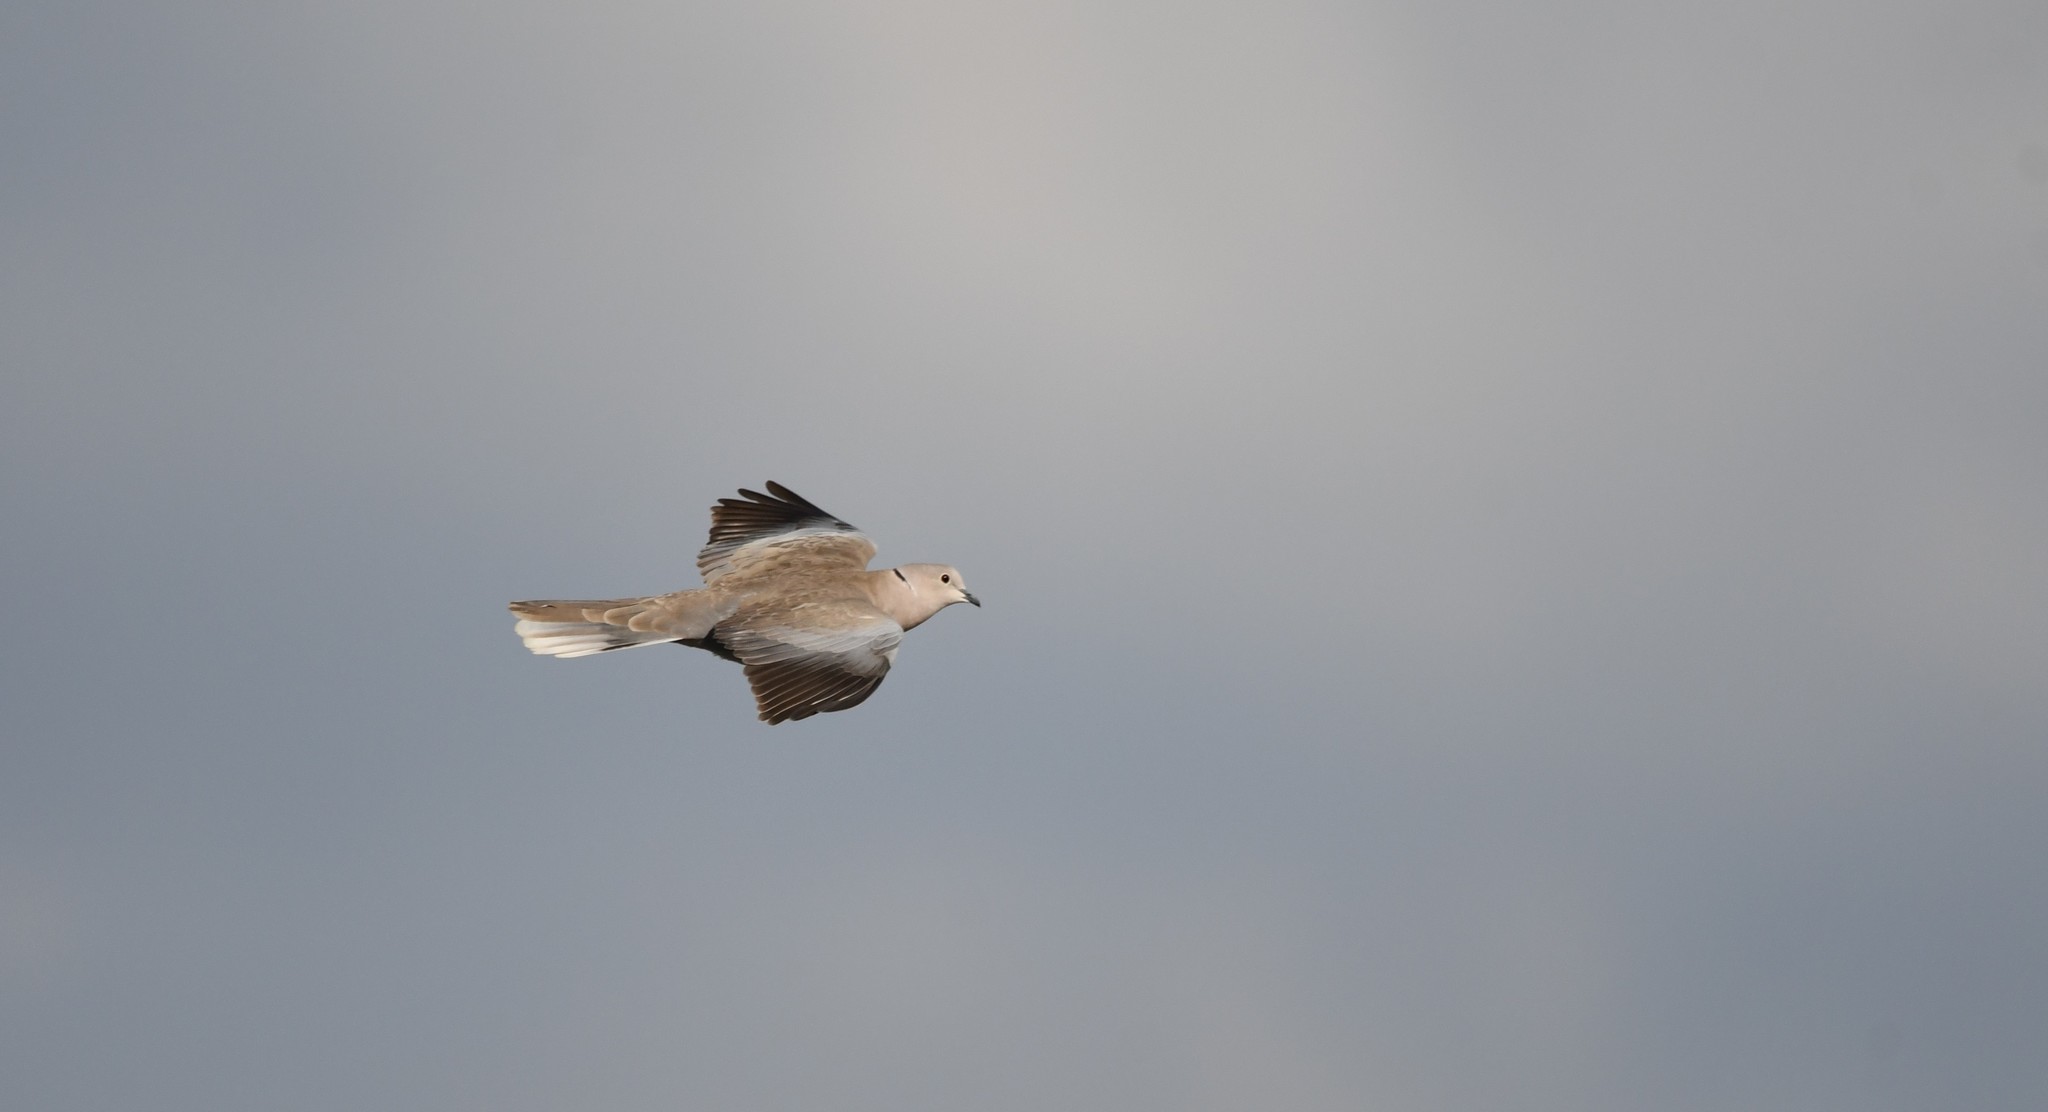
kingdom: Animalia
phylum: Chordata
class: Aves
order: Columbiformes
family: Columbidae
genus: Streptopelia
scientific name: Streptopelia decaocto
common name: Eurasian collared dove
